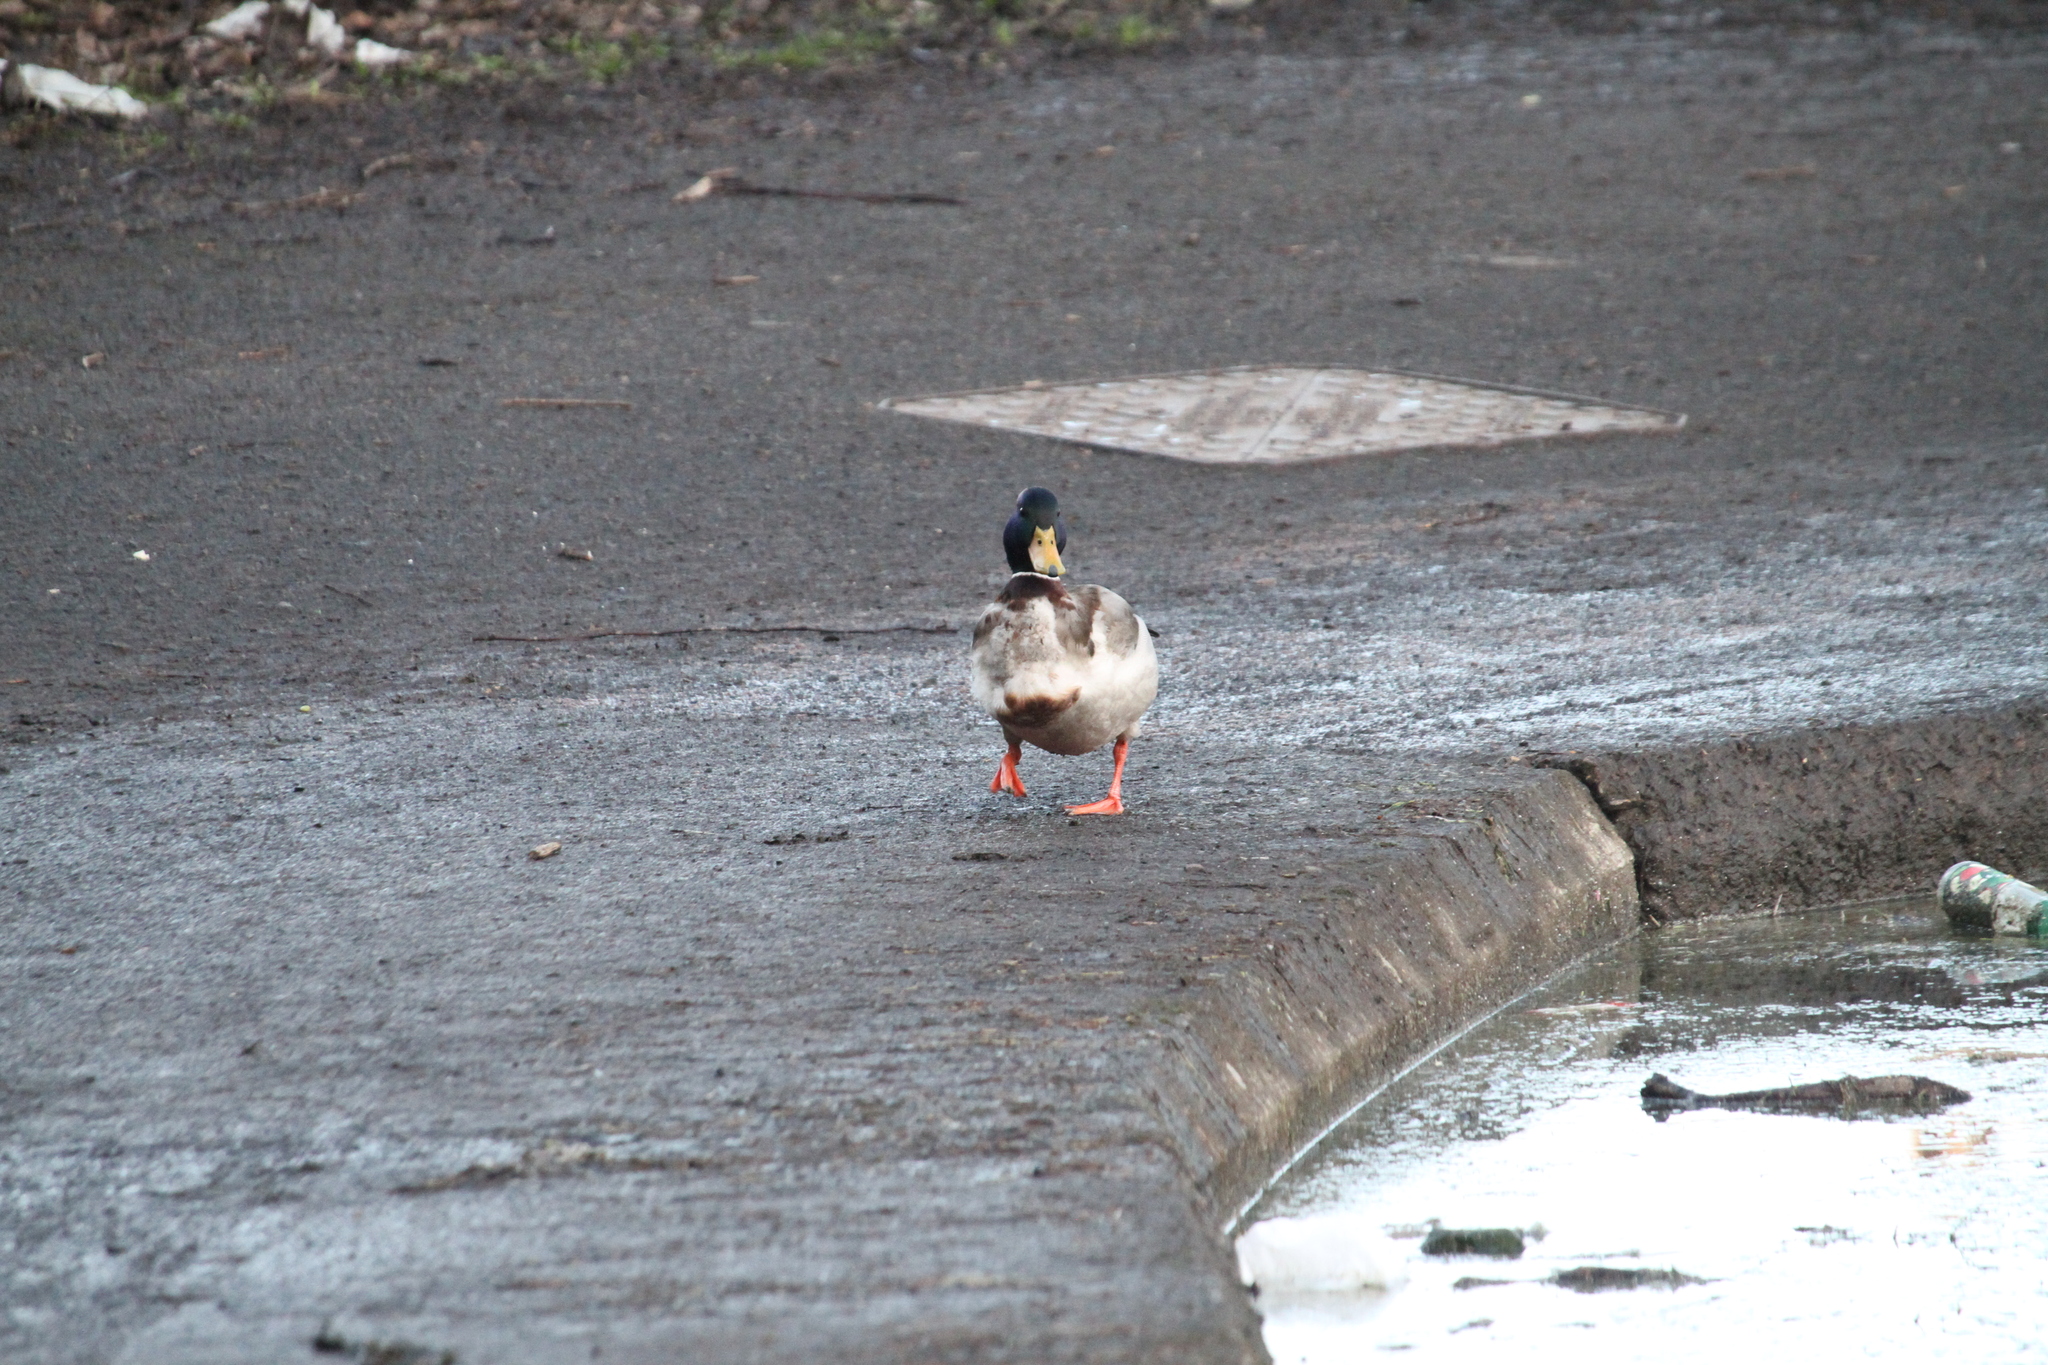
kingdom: Animalia
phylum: Chordata
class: Aves
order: Anseriformes
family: Anatidae
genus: Anas
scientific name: Anas platyrhynchos
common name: Mallard
